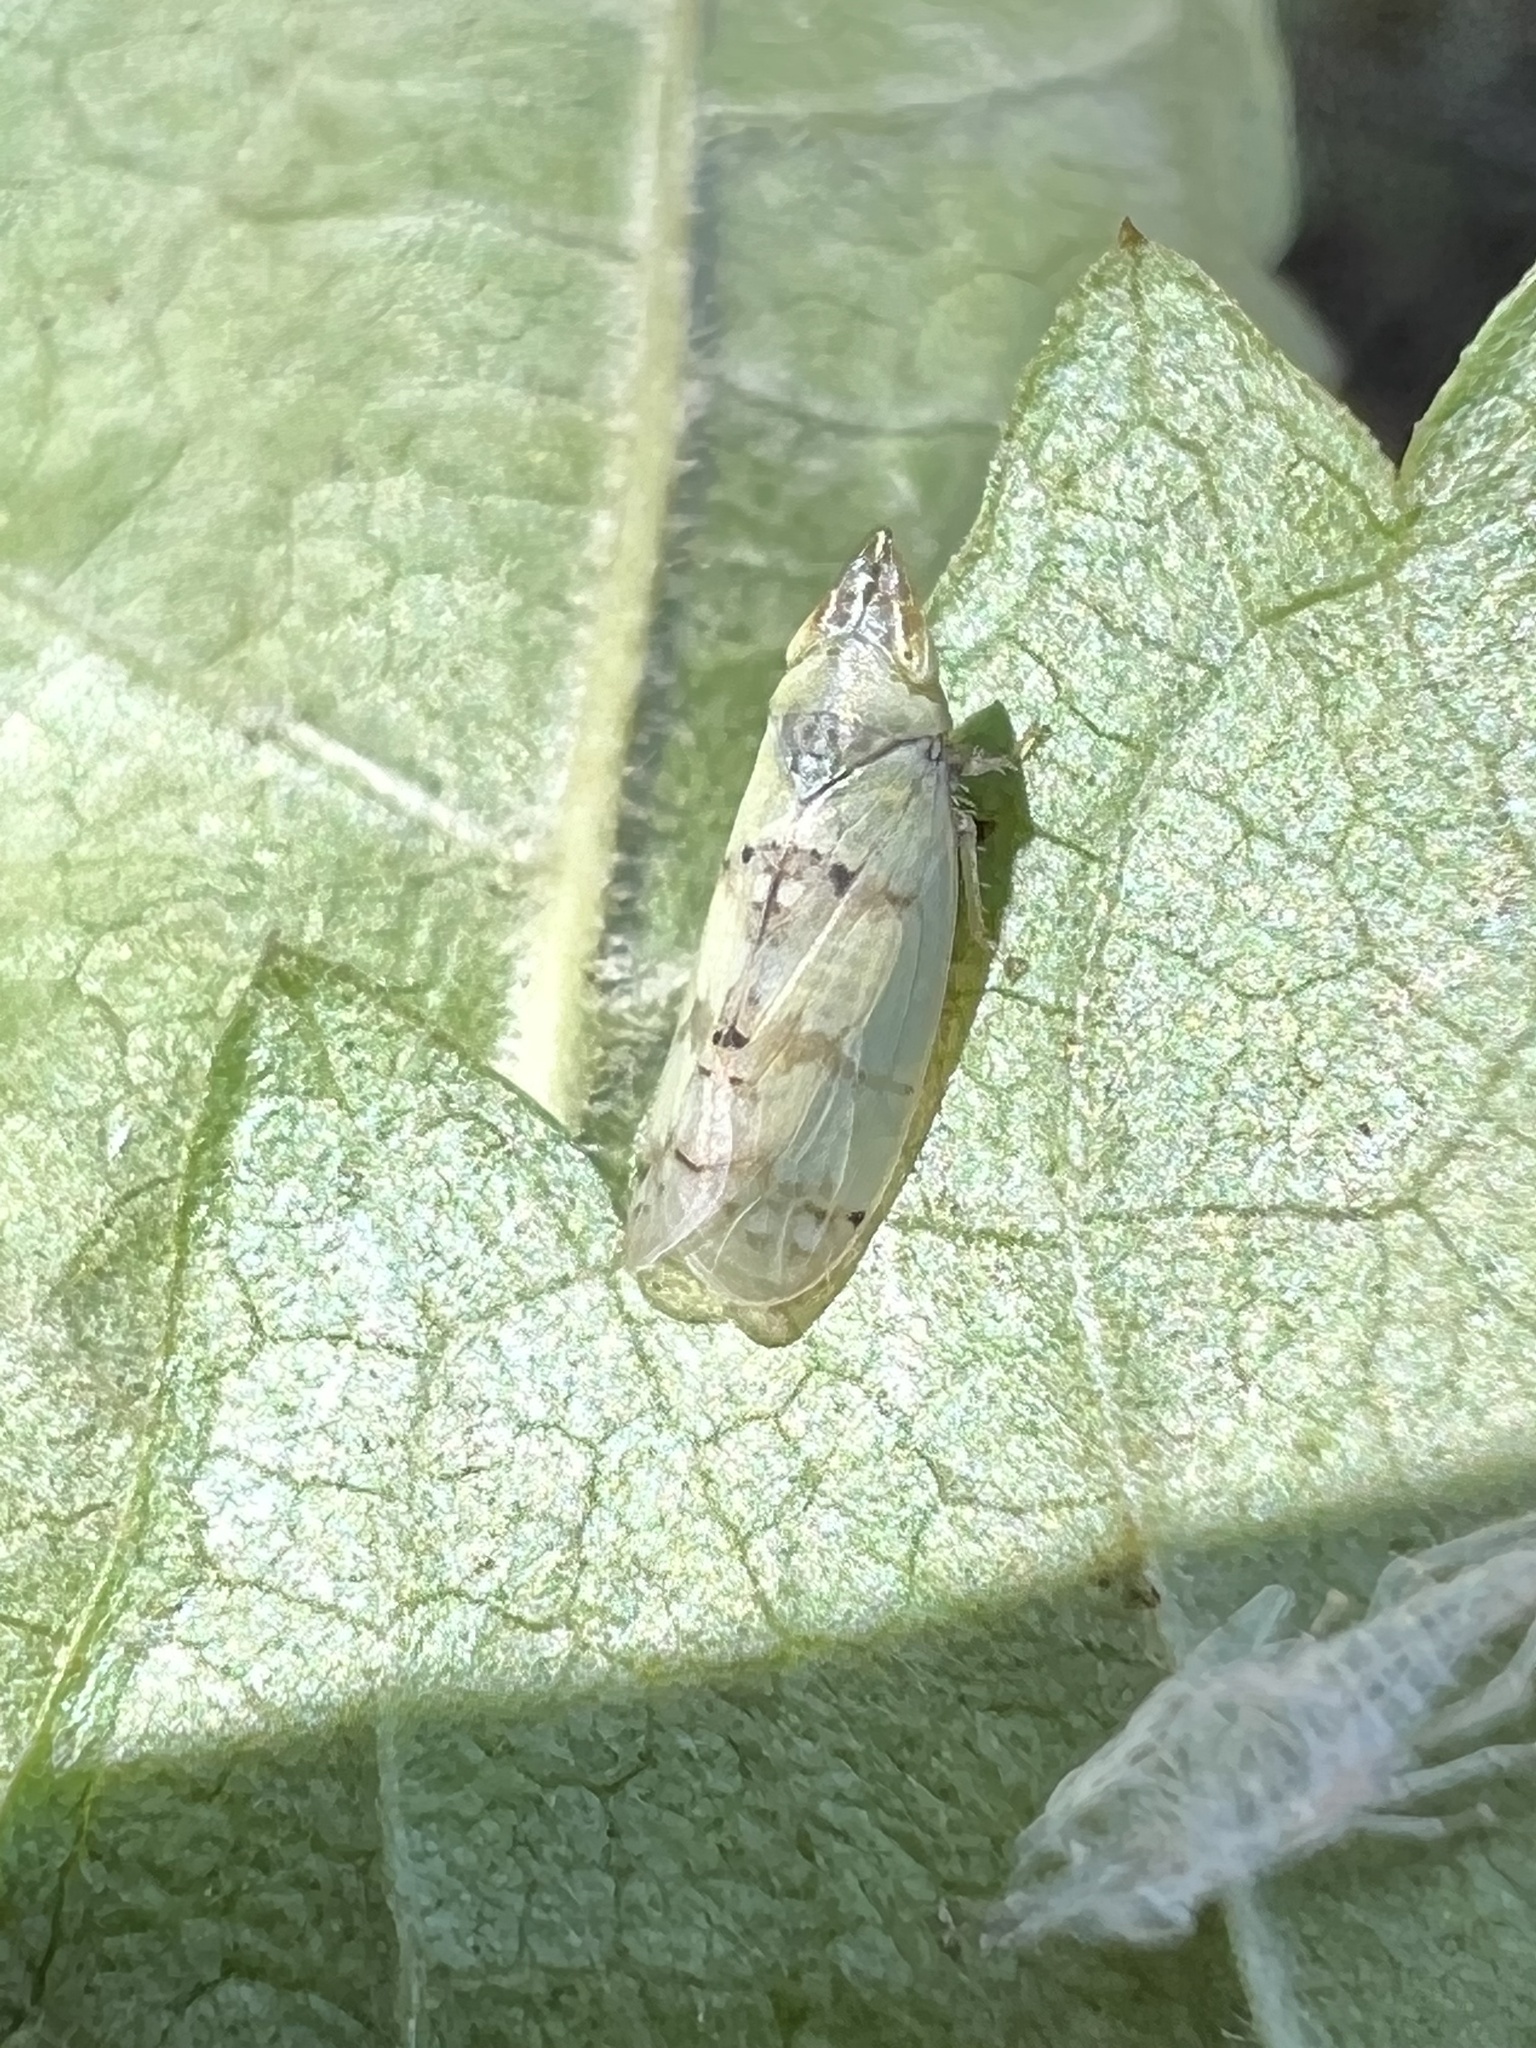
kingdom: Animalia
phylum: Arthropoda
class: Insecta
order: Hemiptera
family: Cicadellidae
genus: Japananus
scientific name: Japananus hyalinus
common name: The japanese maple leafhopper
